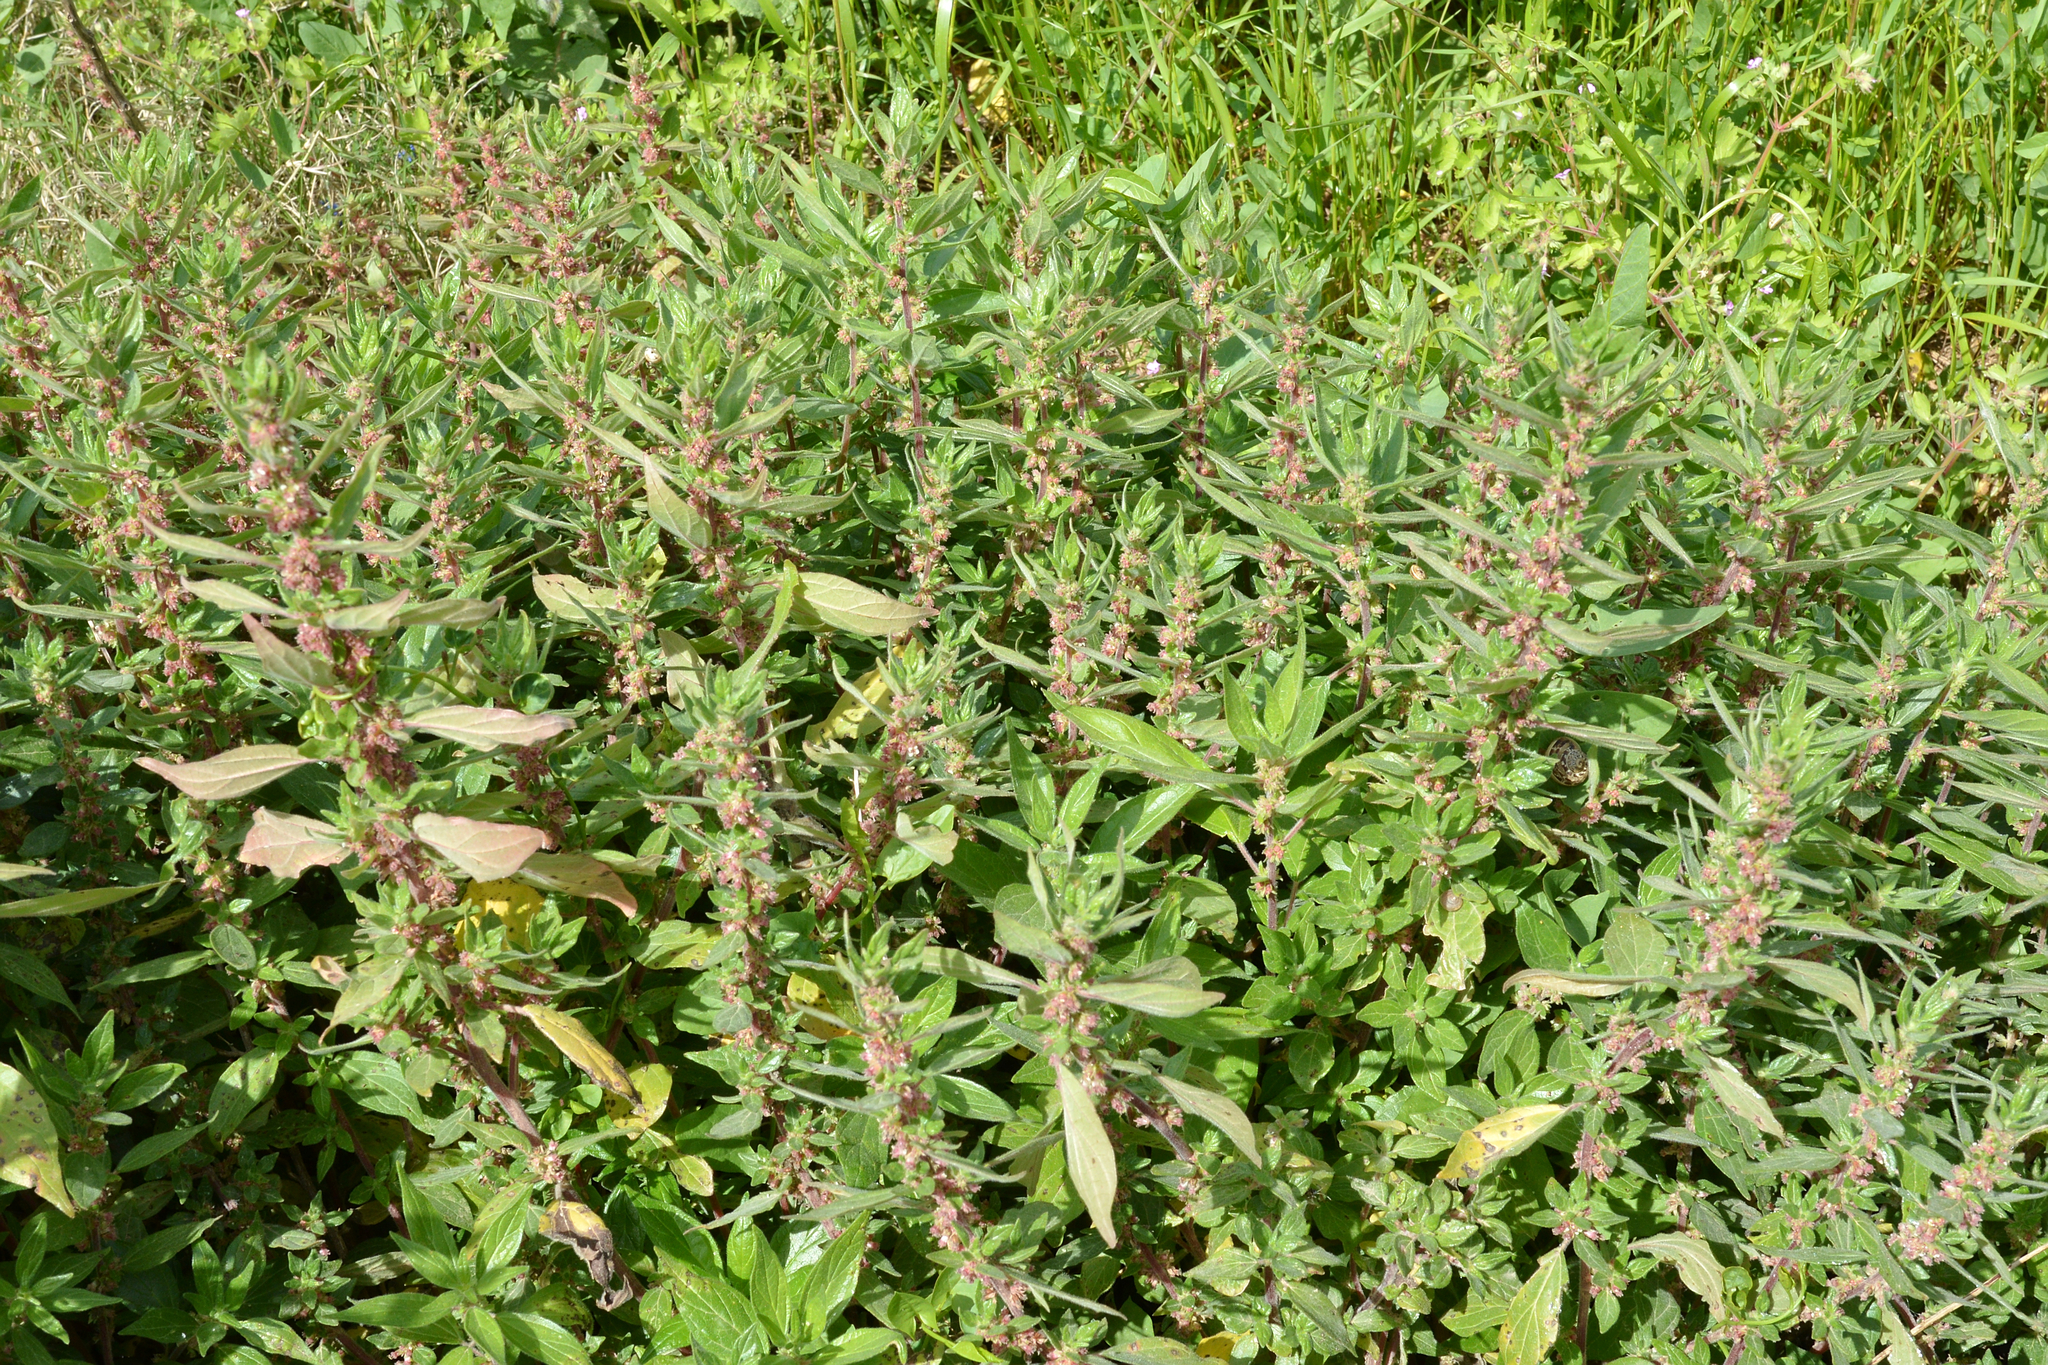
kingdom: Plantae
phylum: Tracheophyta
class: Magnoliopsida
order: Rosales
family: Urticaceae
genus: Parietaria
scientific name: Parietaria judaica
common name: Pellitory-of-the-wall
